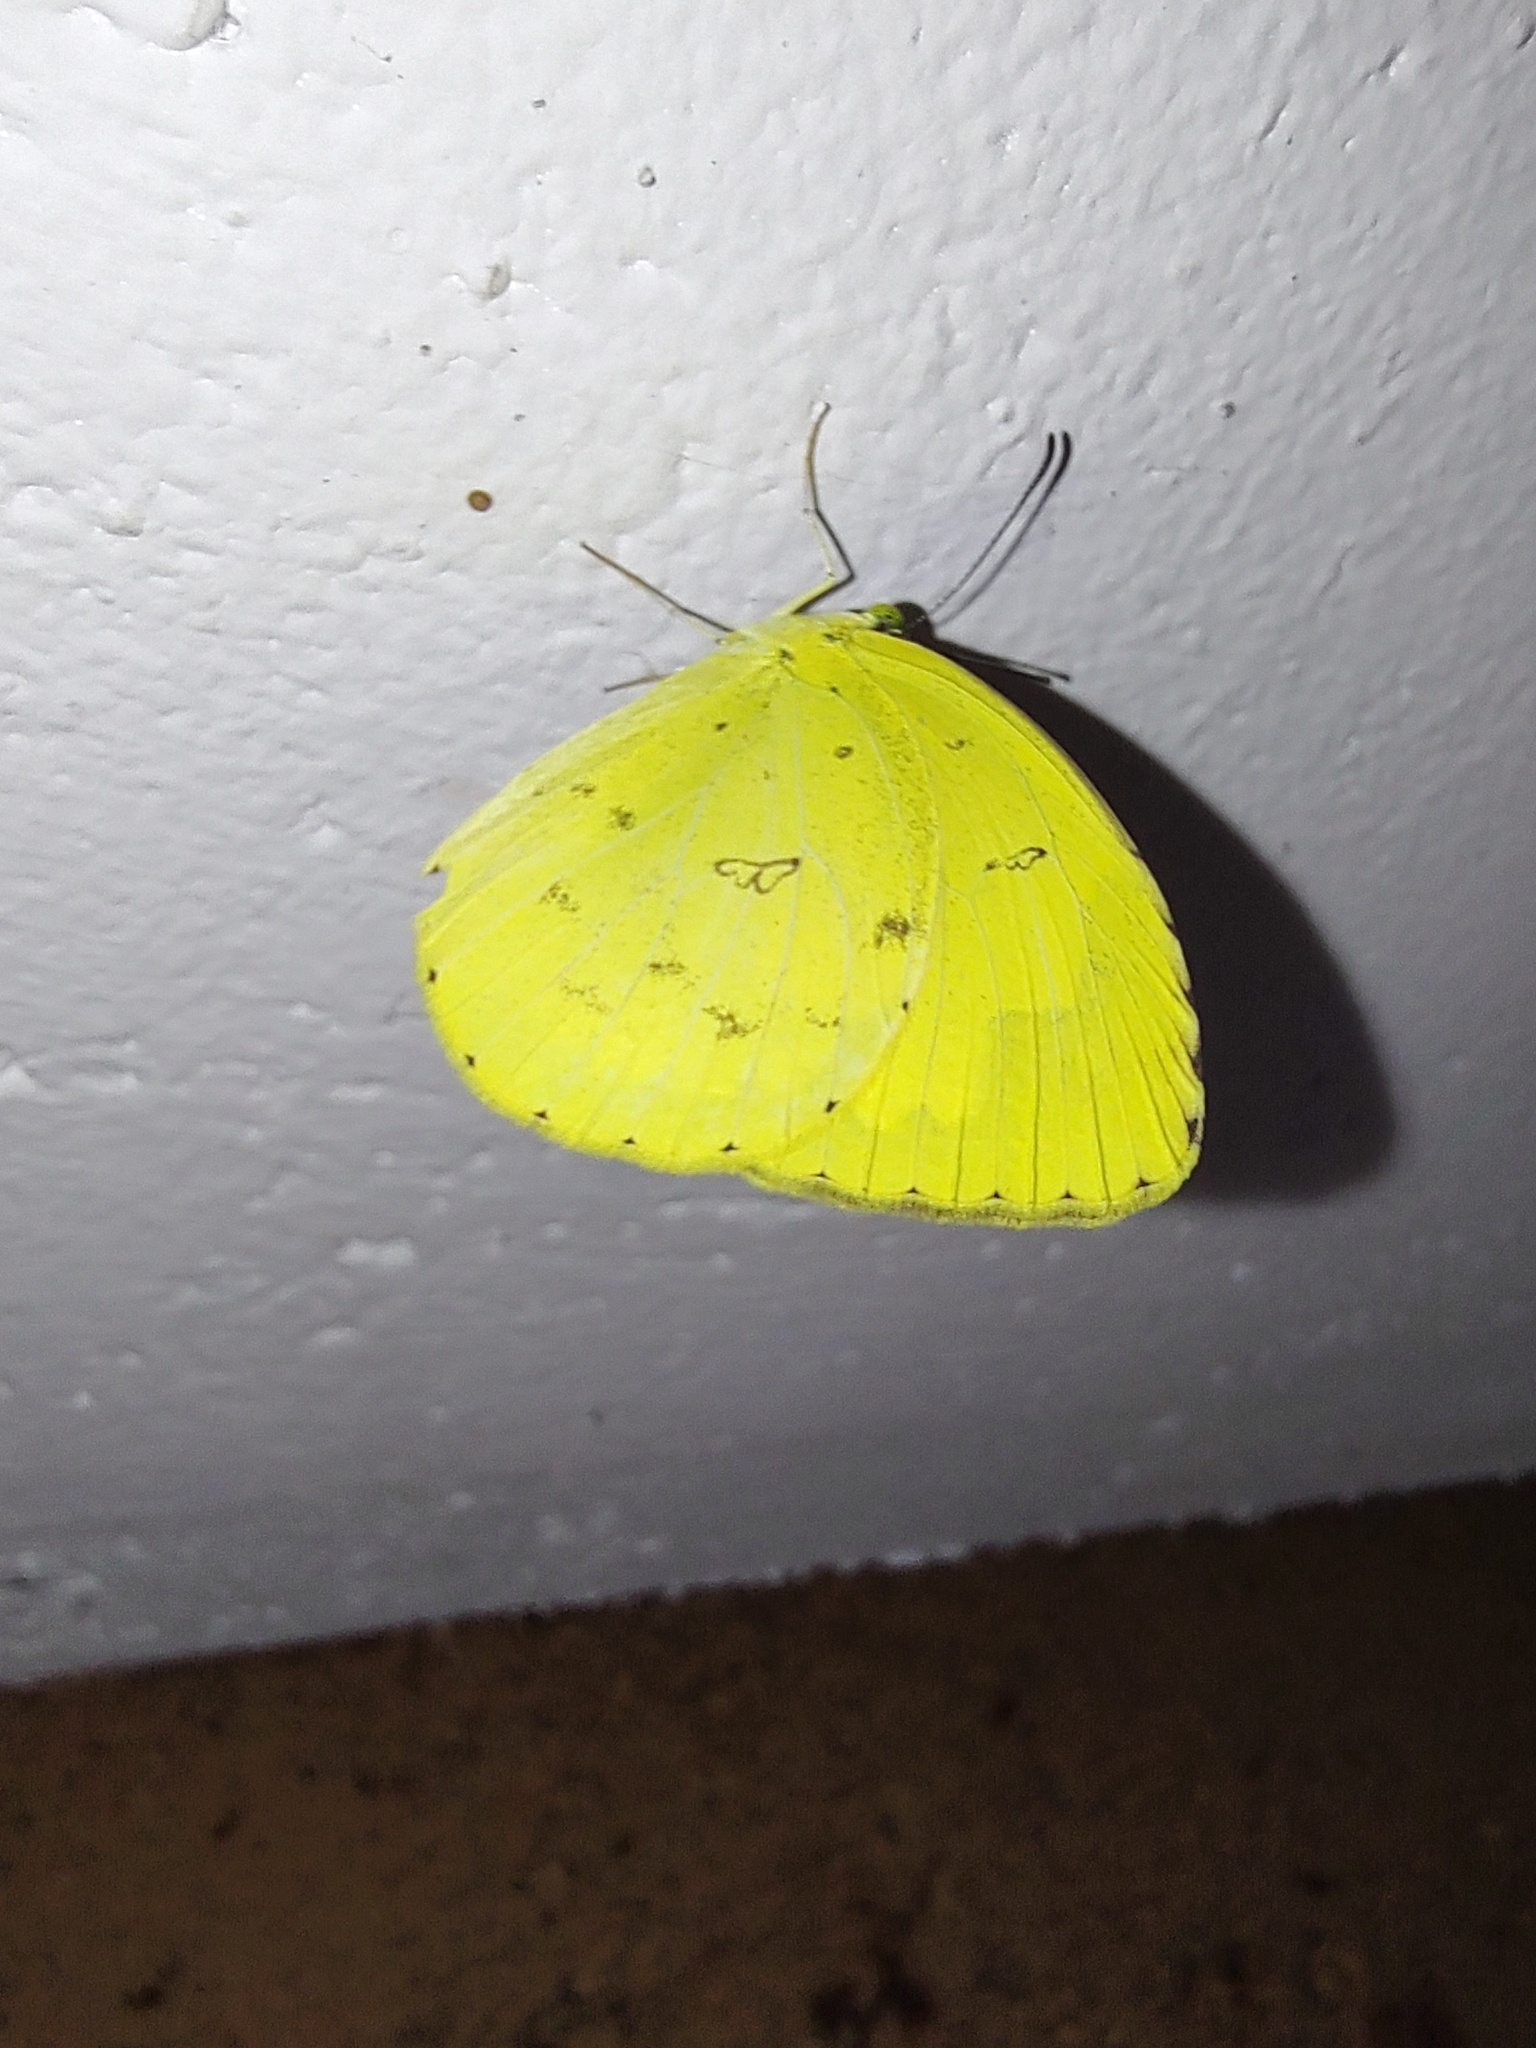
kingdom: Animalia
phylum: Arthropoda
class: Insecta
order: Lepidoptera
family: Pieridae
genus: Eurema
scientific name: Eurema hecabe
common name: Pale grass yellow
